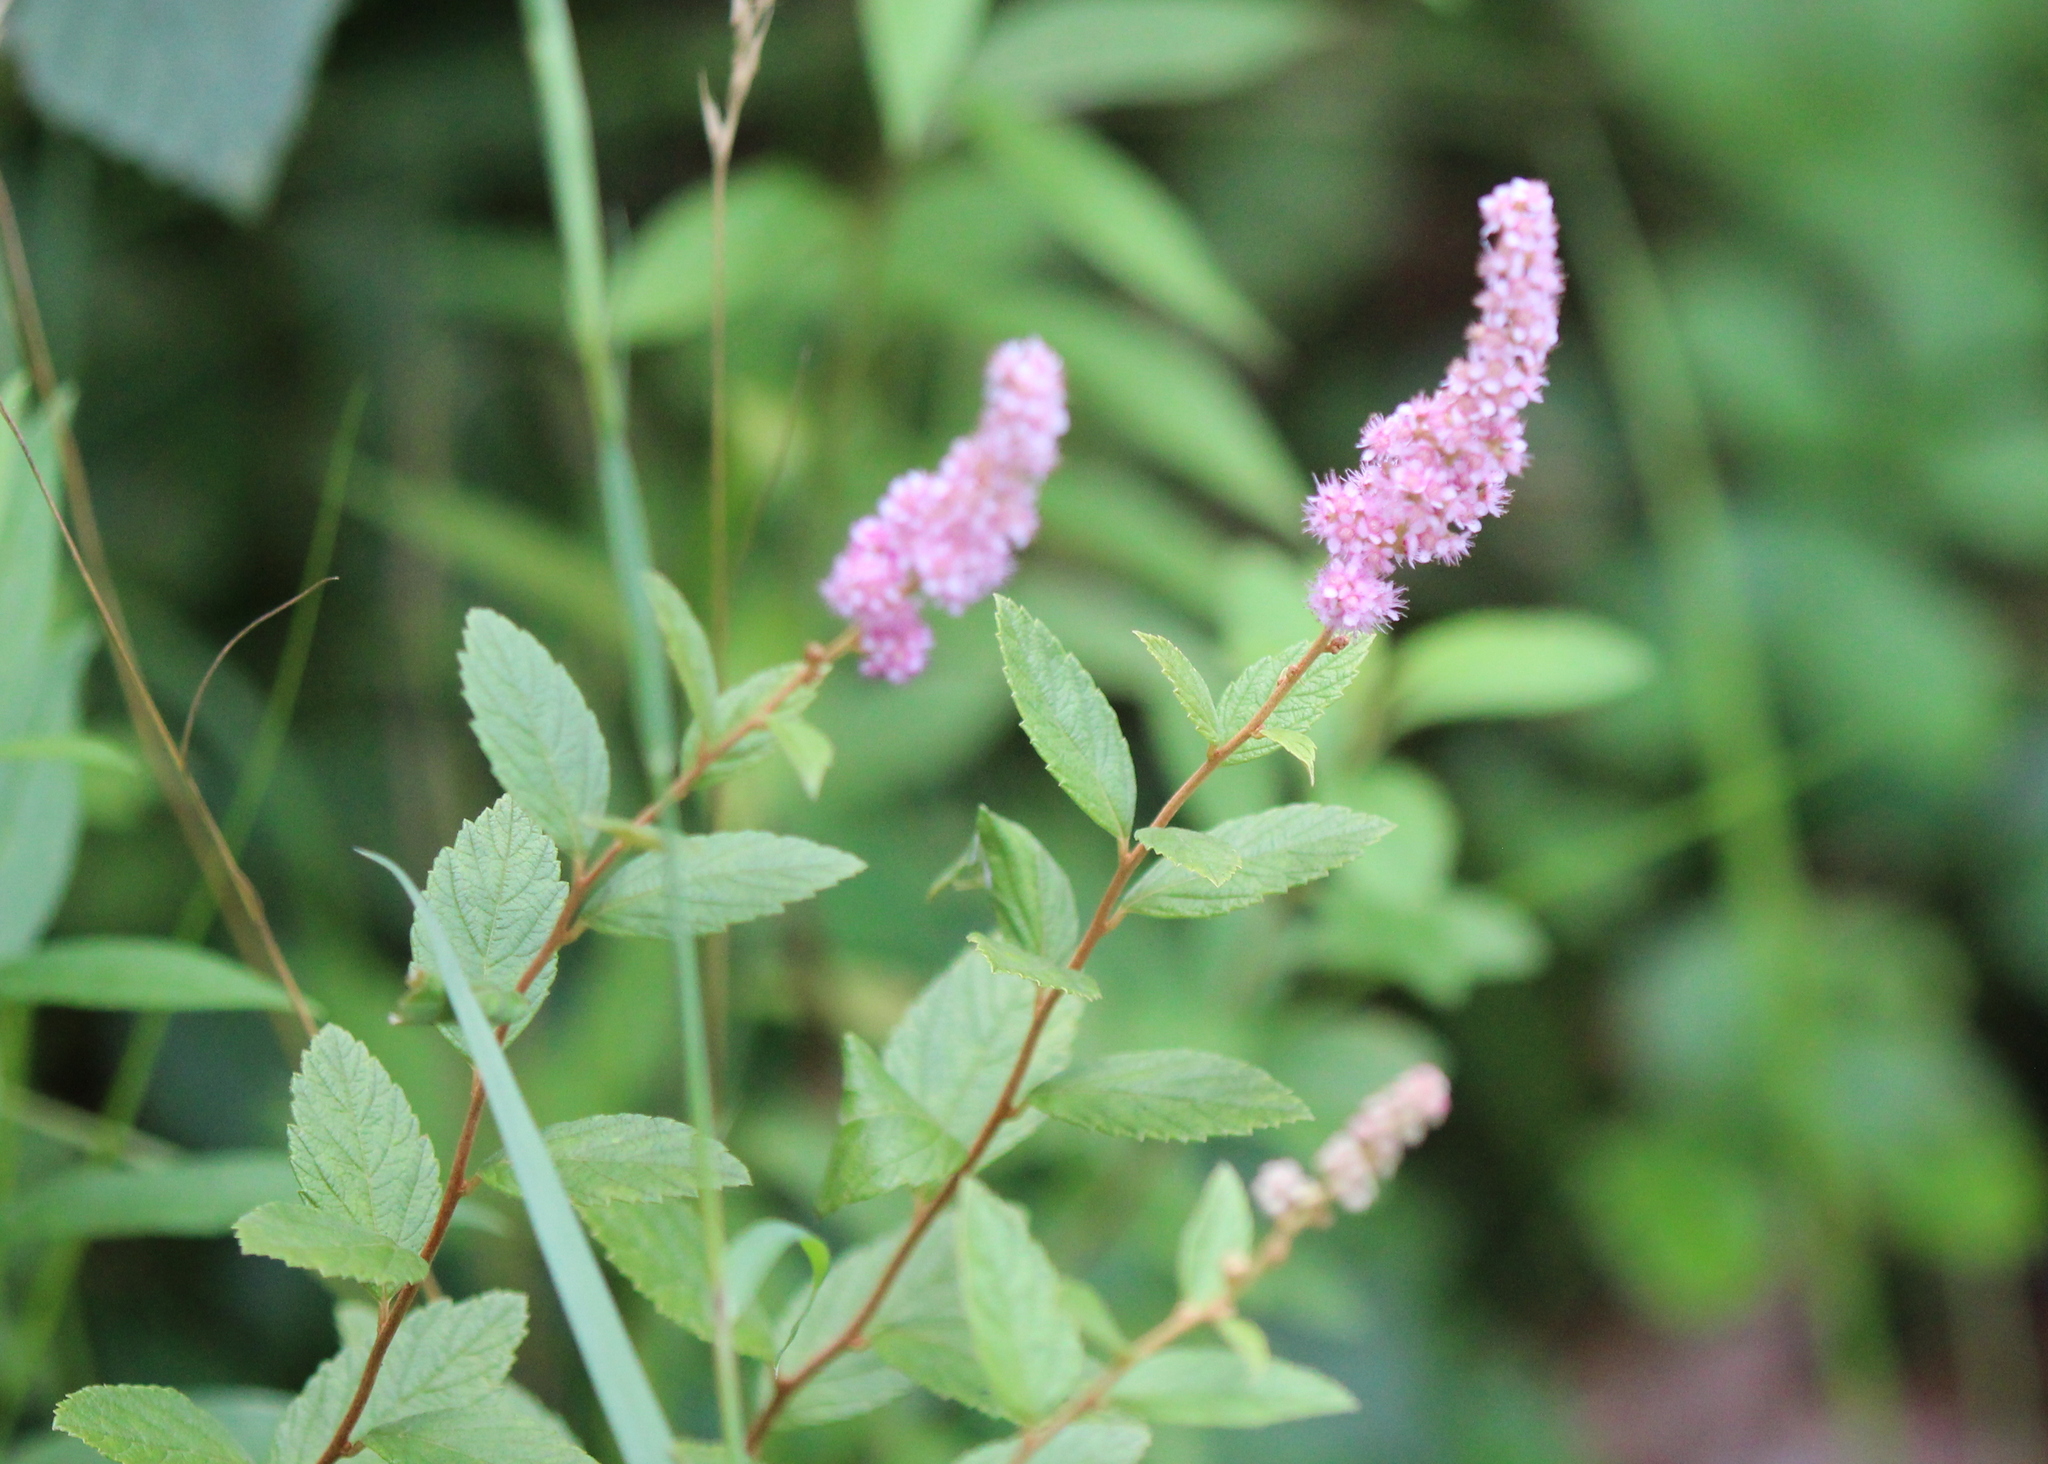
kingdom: Plantae
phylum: Tracheophyta
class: Magnoliopsida
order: Rosales
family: Rosaceae
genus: Spiraea
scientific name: Spiraea tomentosa
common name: Hardhack
